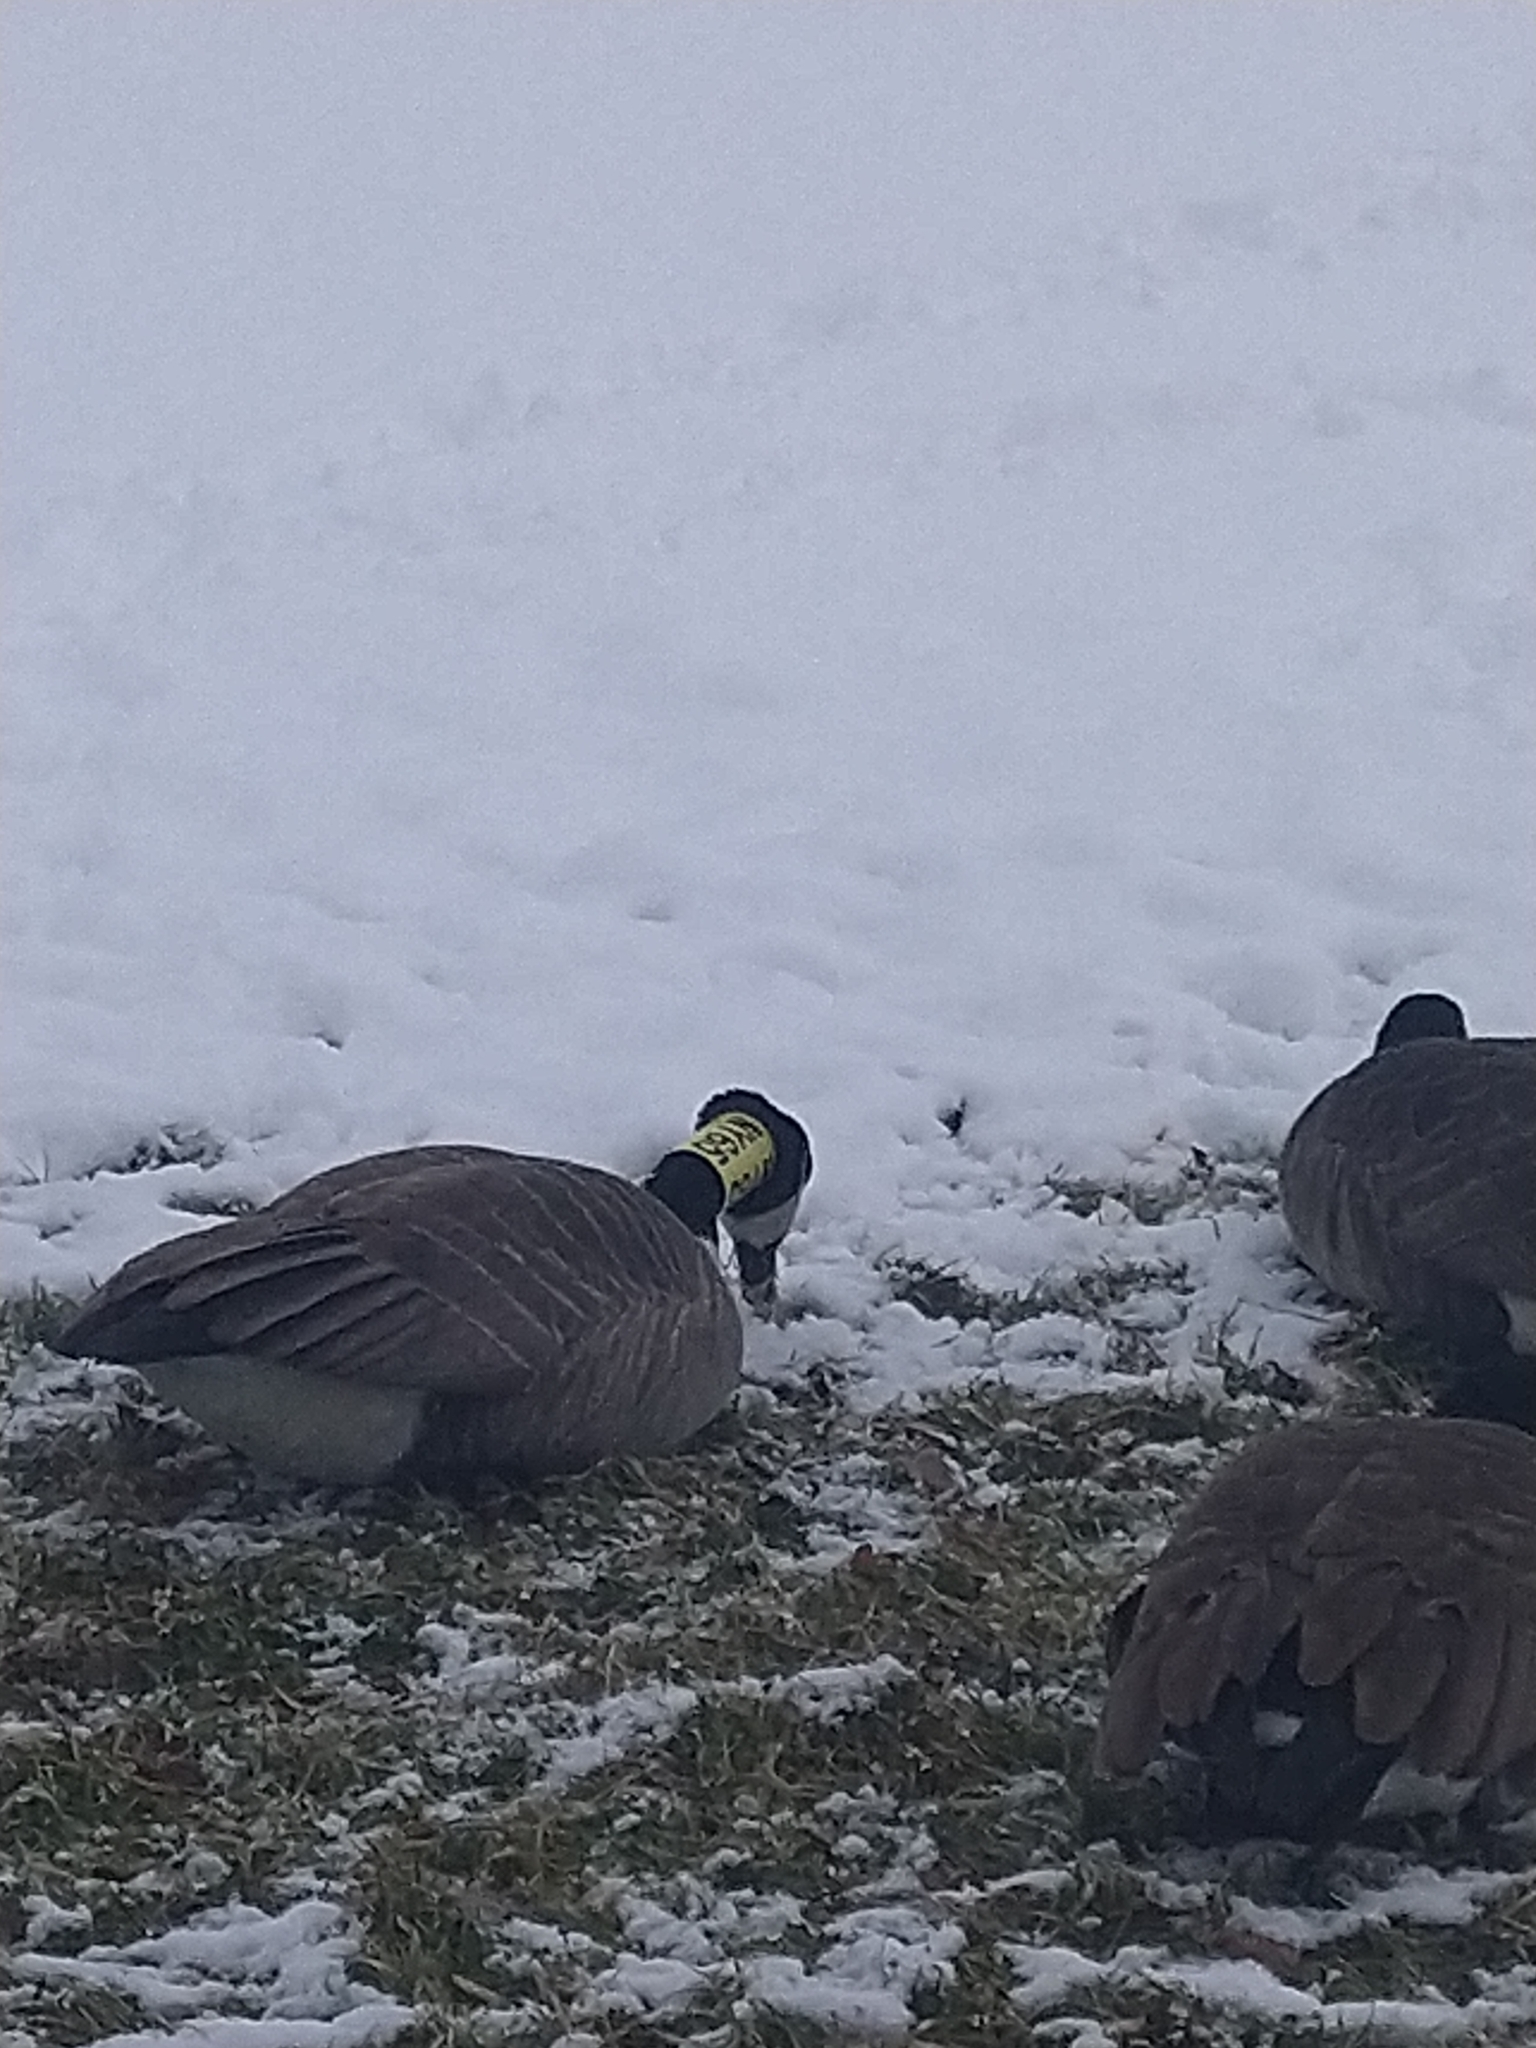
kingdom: Animalia
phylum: Chordata
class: Aves
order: Anseriformes
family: Anatidae
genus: Branta
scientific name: Branta canadensis
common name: Canada goose
